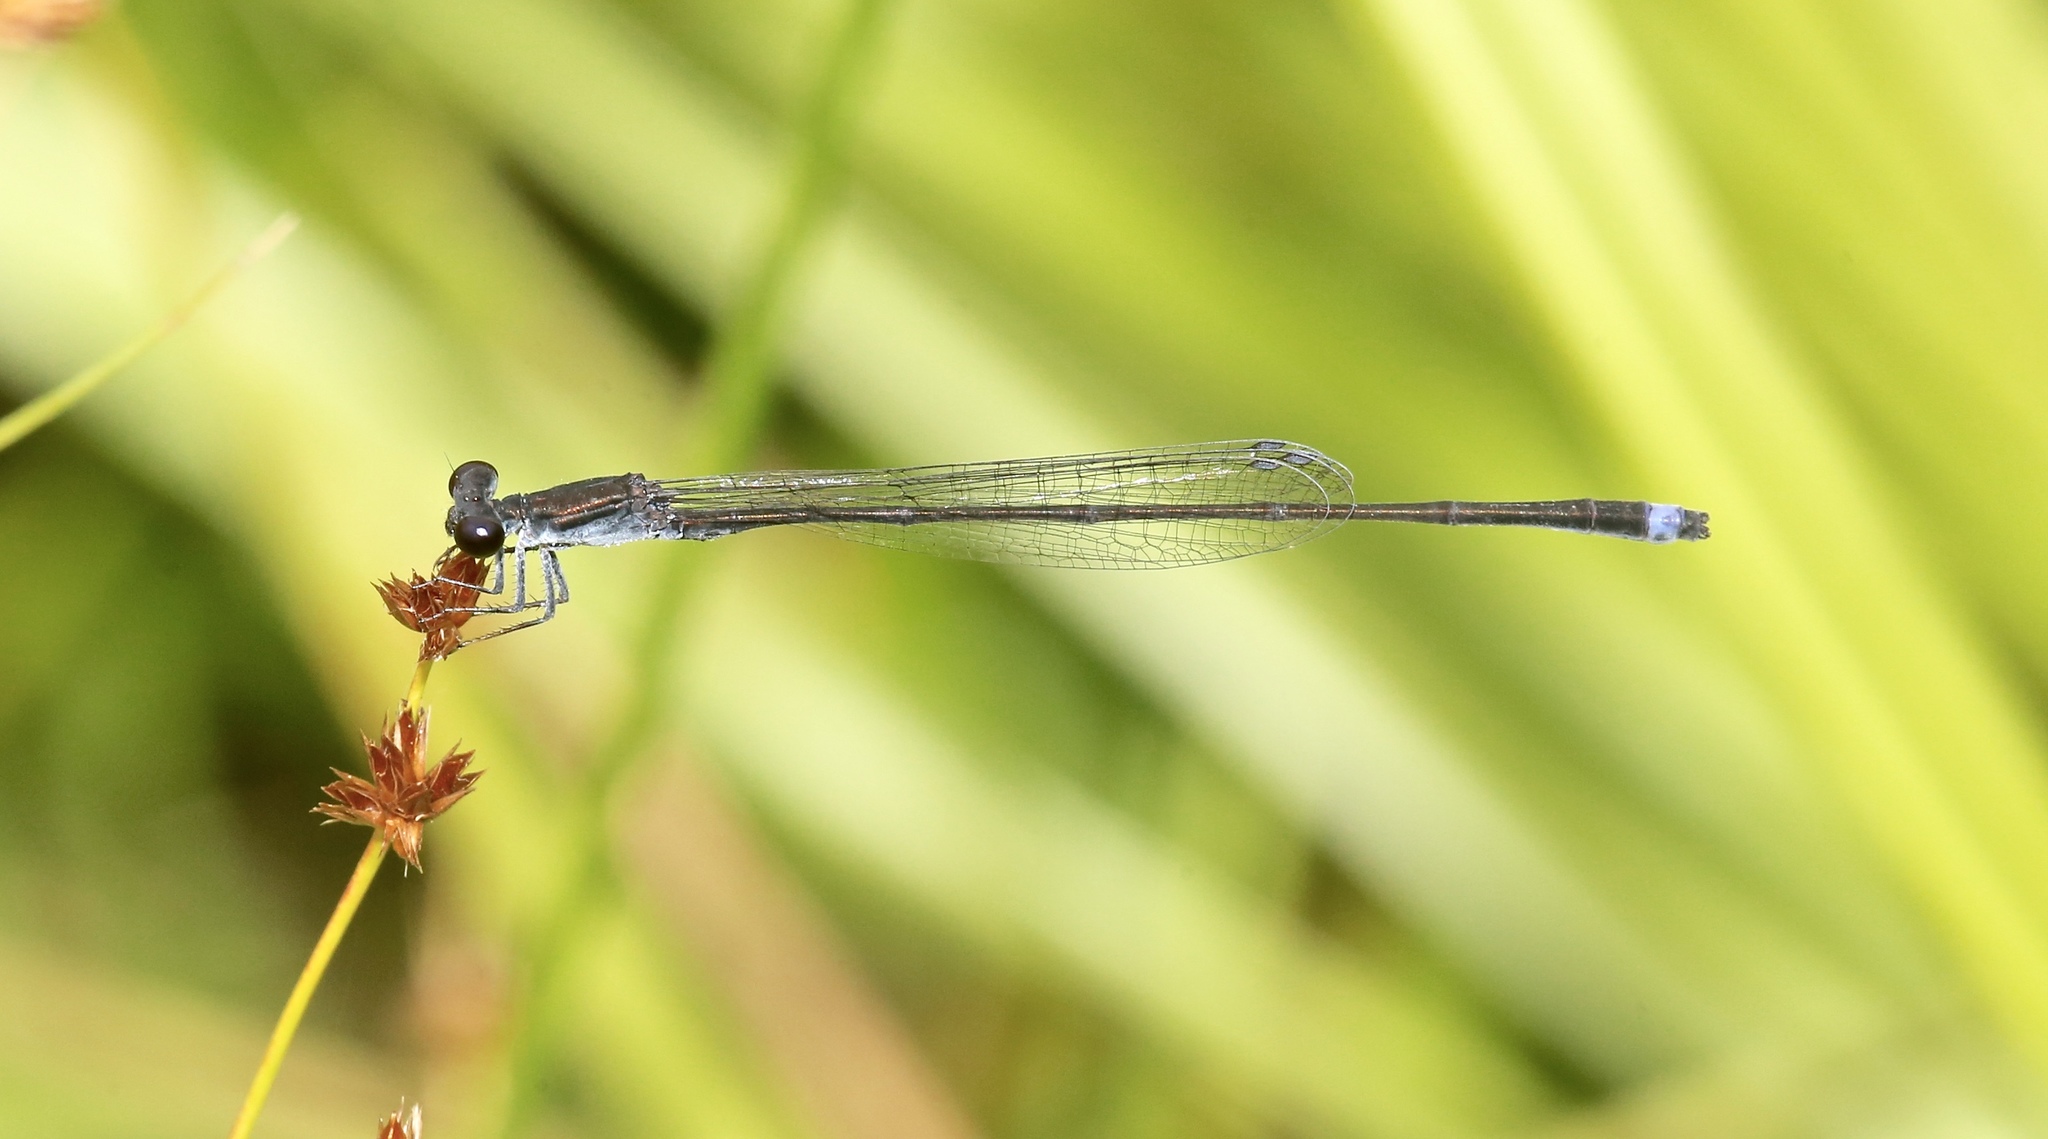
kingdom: Animalia
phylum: Arthropoda
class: Insecta
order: Odonata
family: Coenagrionidae
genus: Enallagma
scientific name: Enallagma weewa
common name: Blackwater bluet
